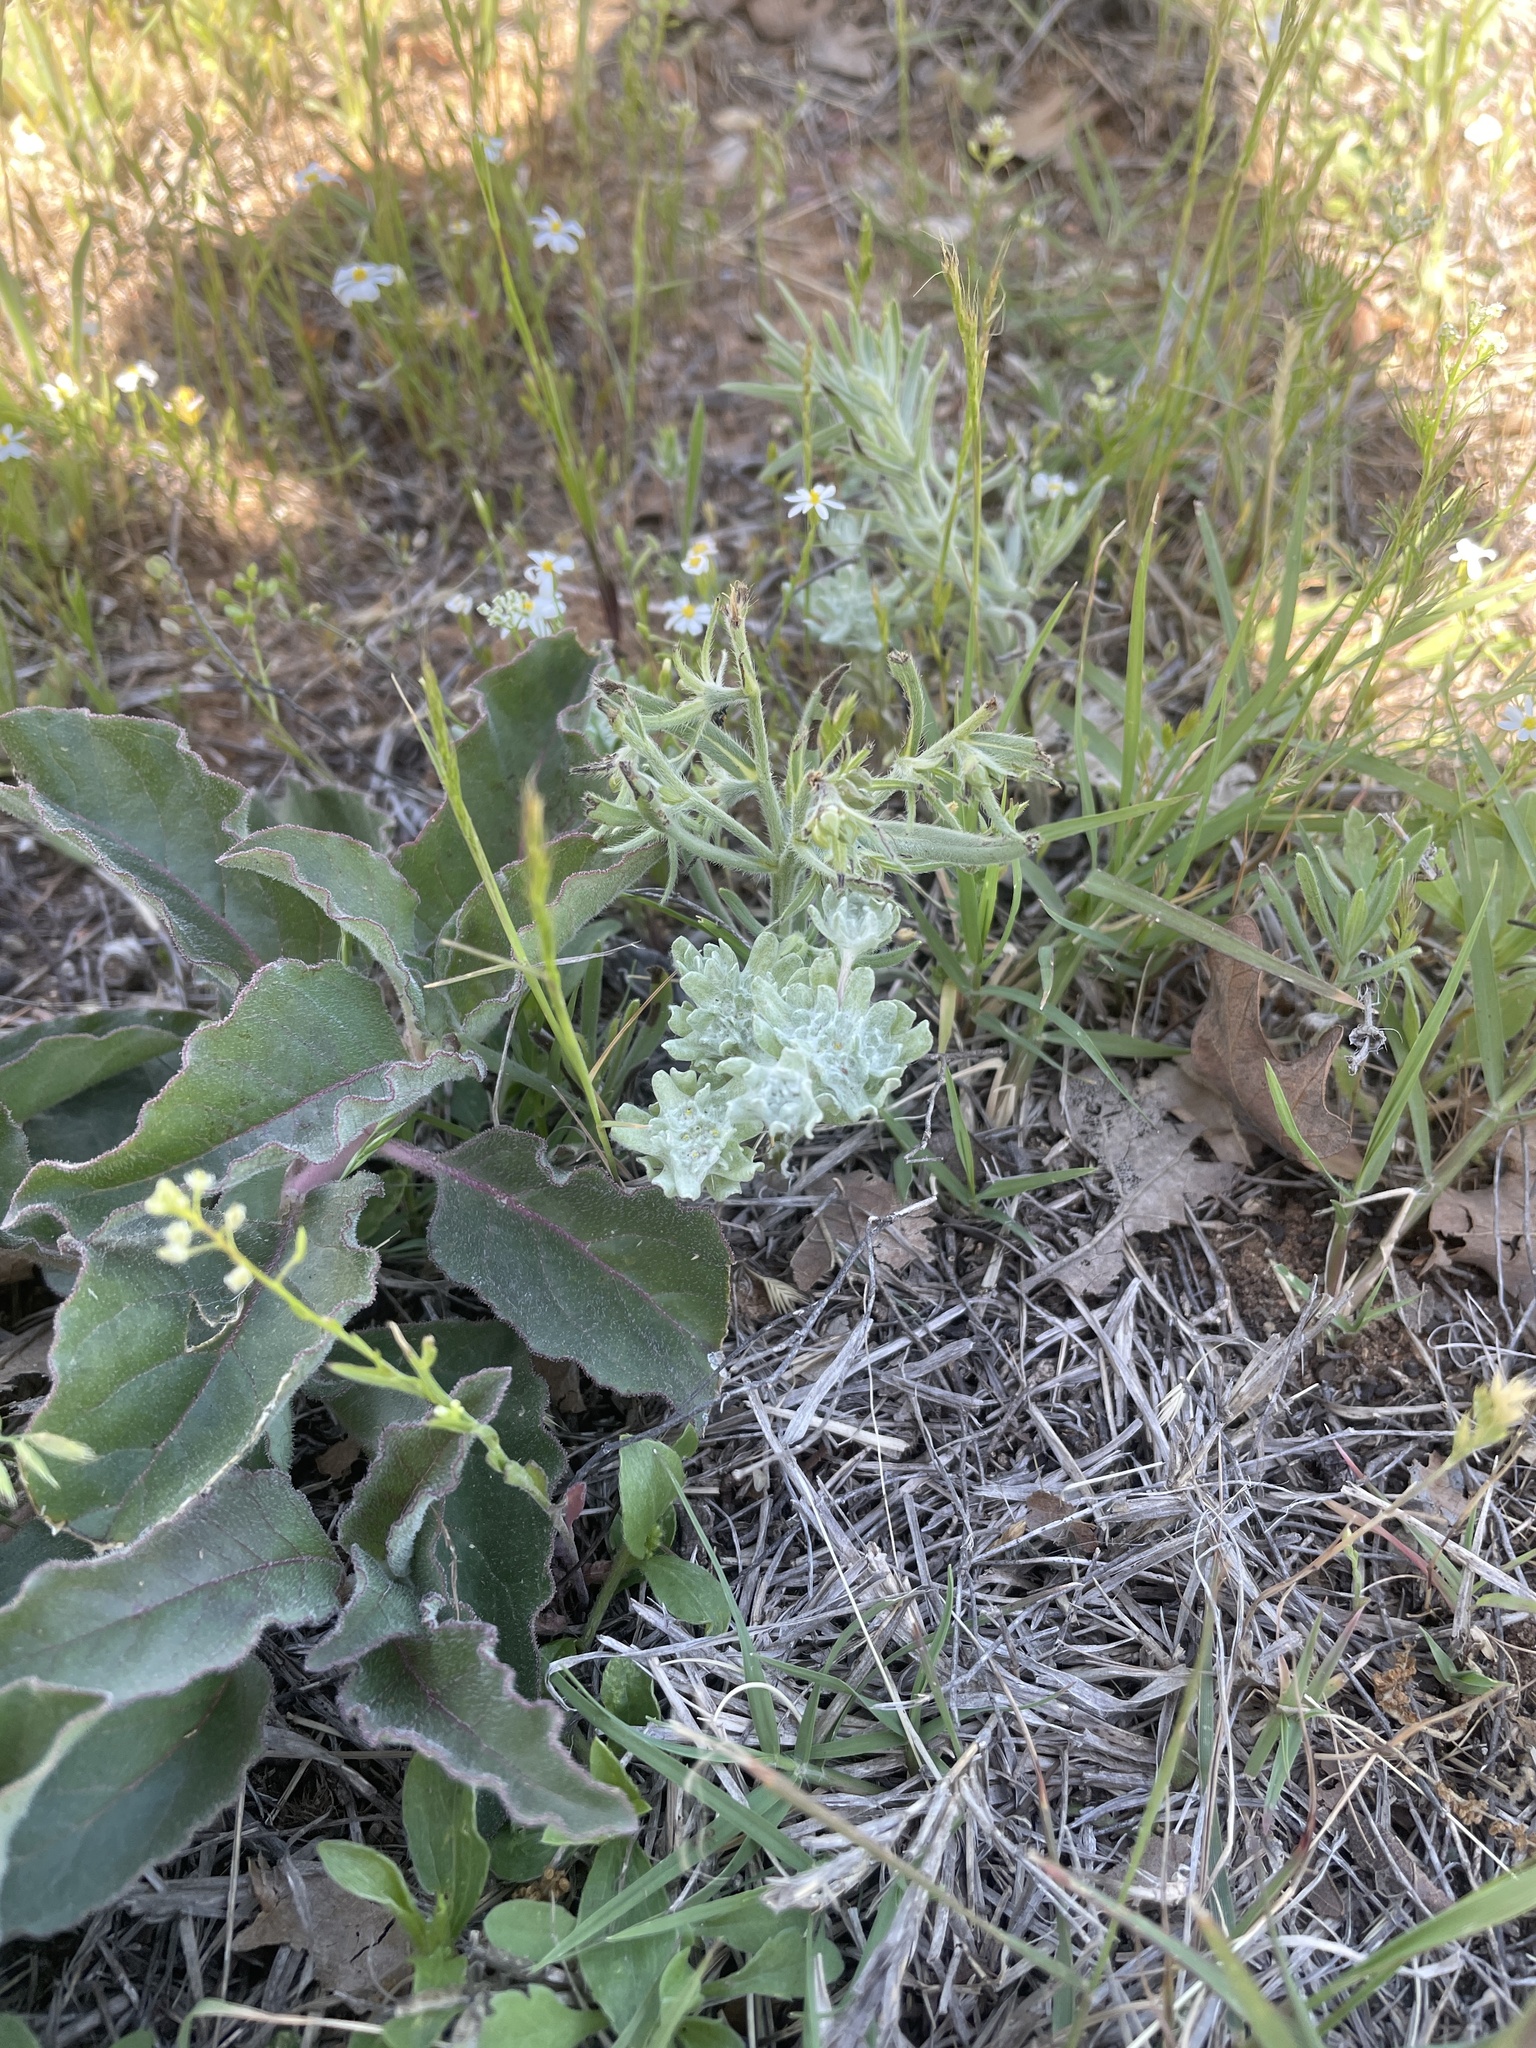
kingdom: Plantae
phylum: Tracheophyta
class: Magnoliopsida
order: Asterales
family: Asteraceae
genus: Diaperia
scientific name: Diaperia prolifera
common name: Big-head rabbit-tobacco
